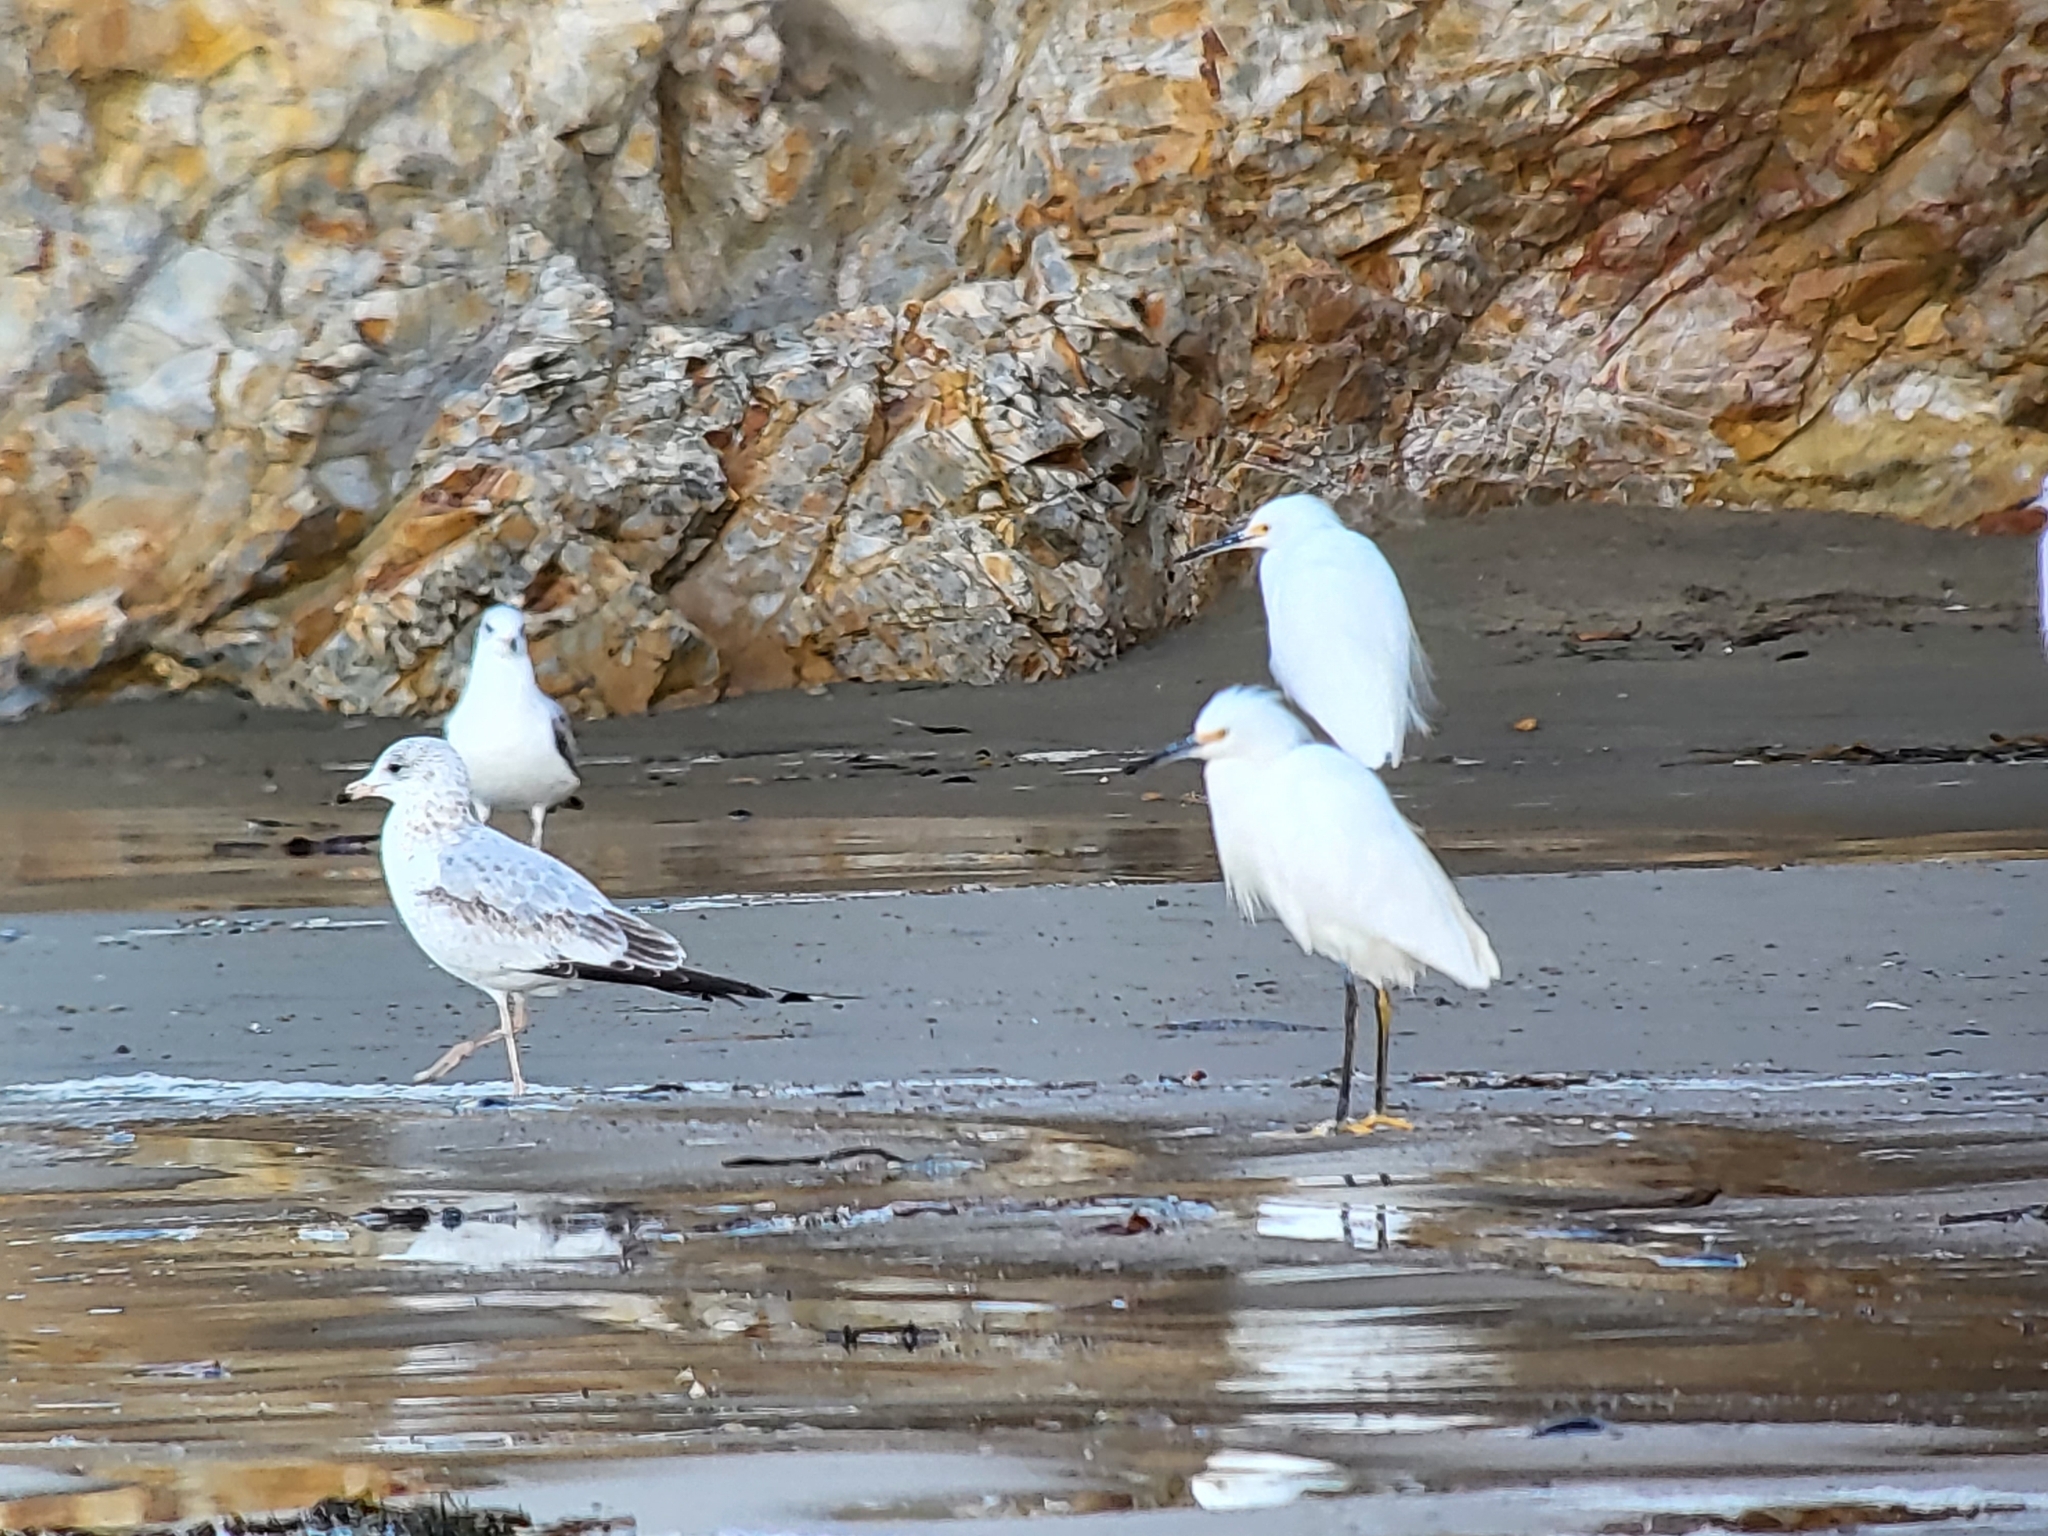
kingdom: Animalia
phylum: Chordata
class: Aves
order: Charadriiformes
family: Laridae
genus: Larus
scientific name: Larus delawarensis
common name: Ring-billed gull
